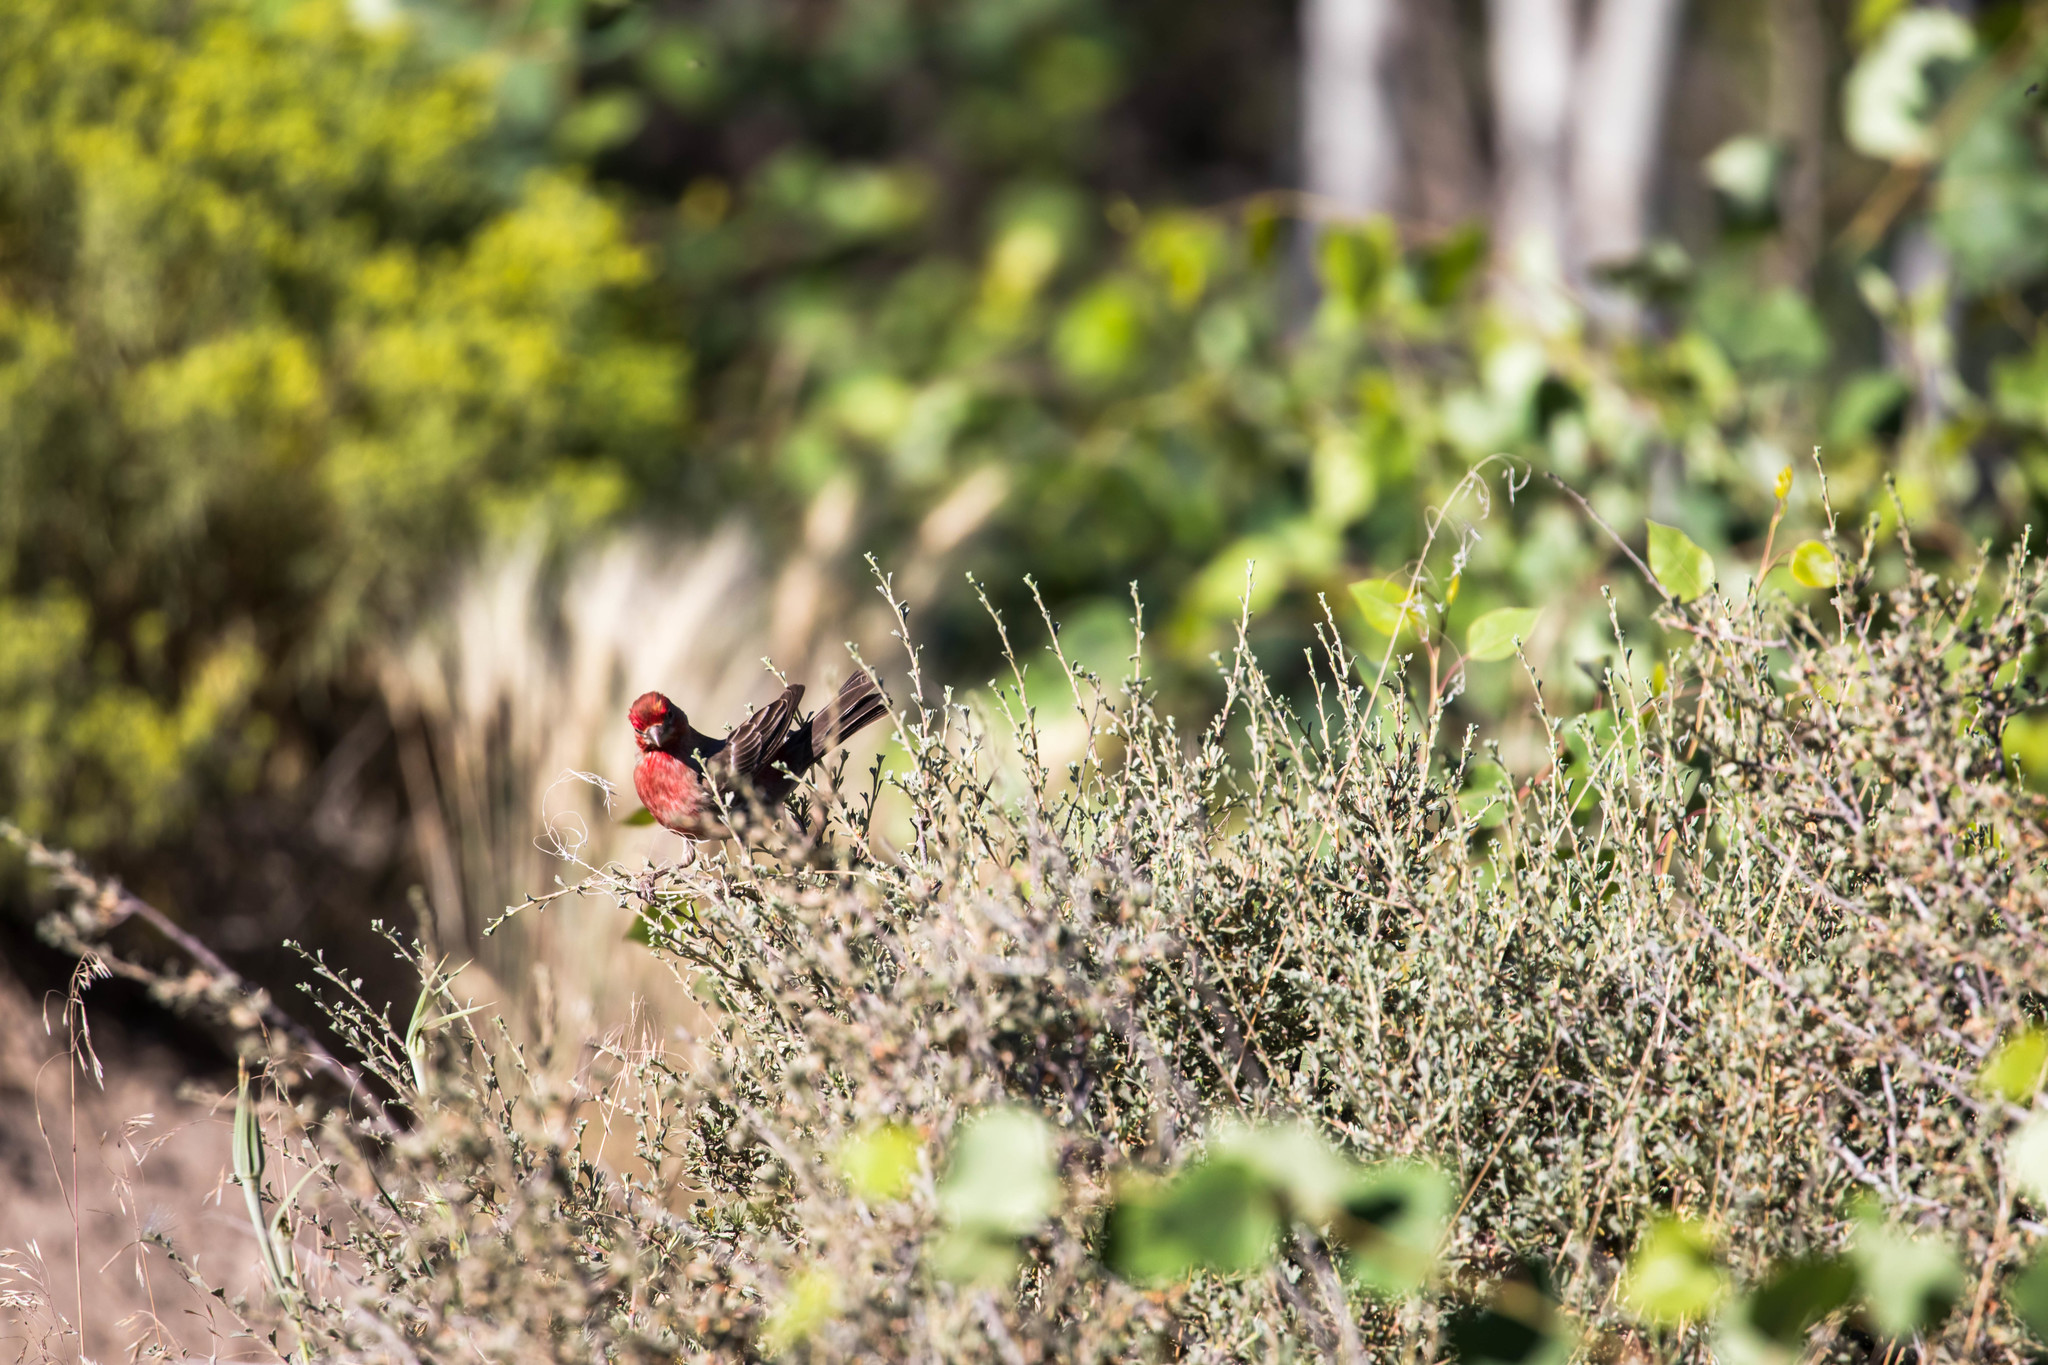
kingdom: Animalia
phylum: Chordata
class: Aves
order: Passeriformes
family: Fringillidae
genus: Haemorhous
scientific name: Haemorhous mexicanus
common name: House finch
